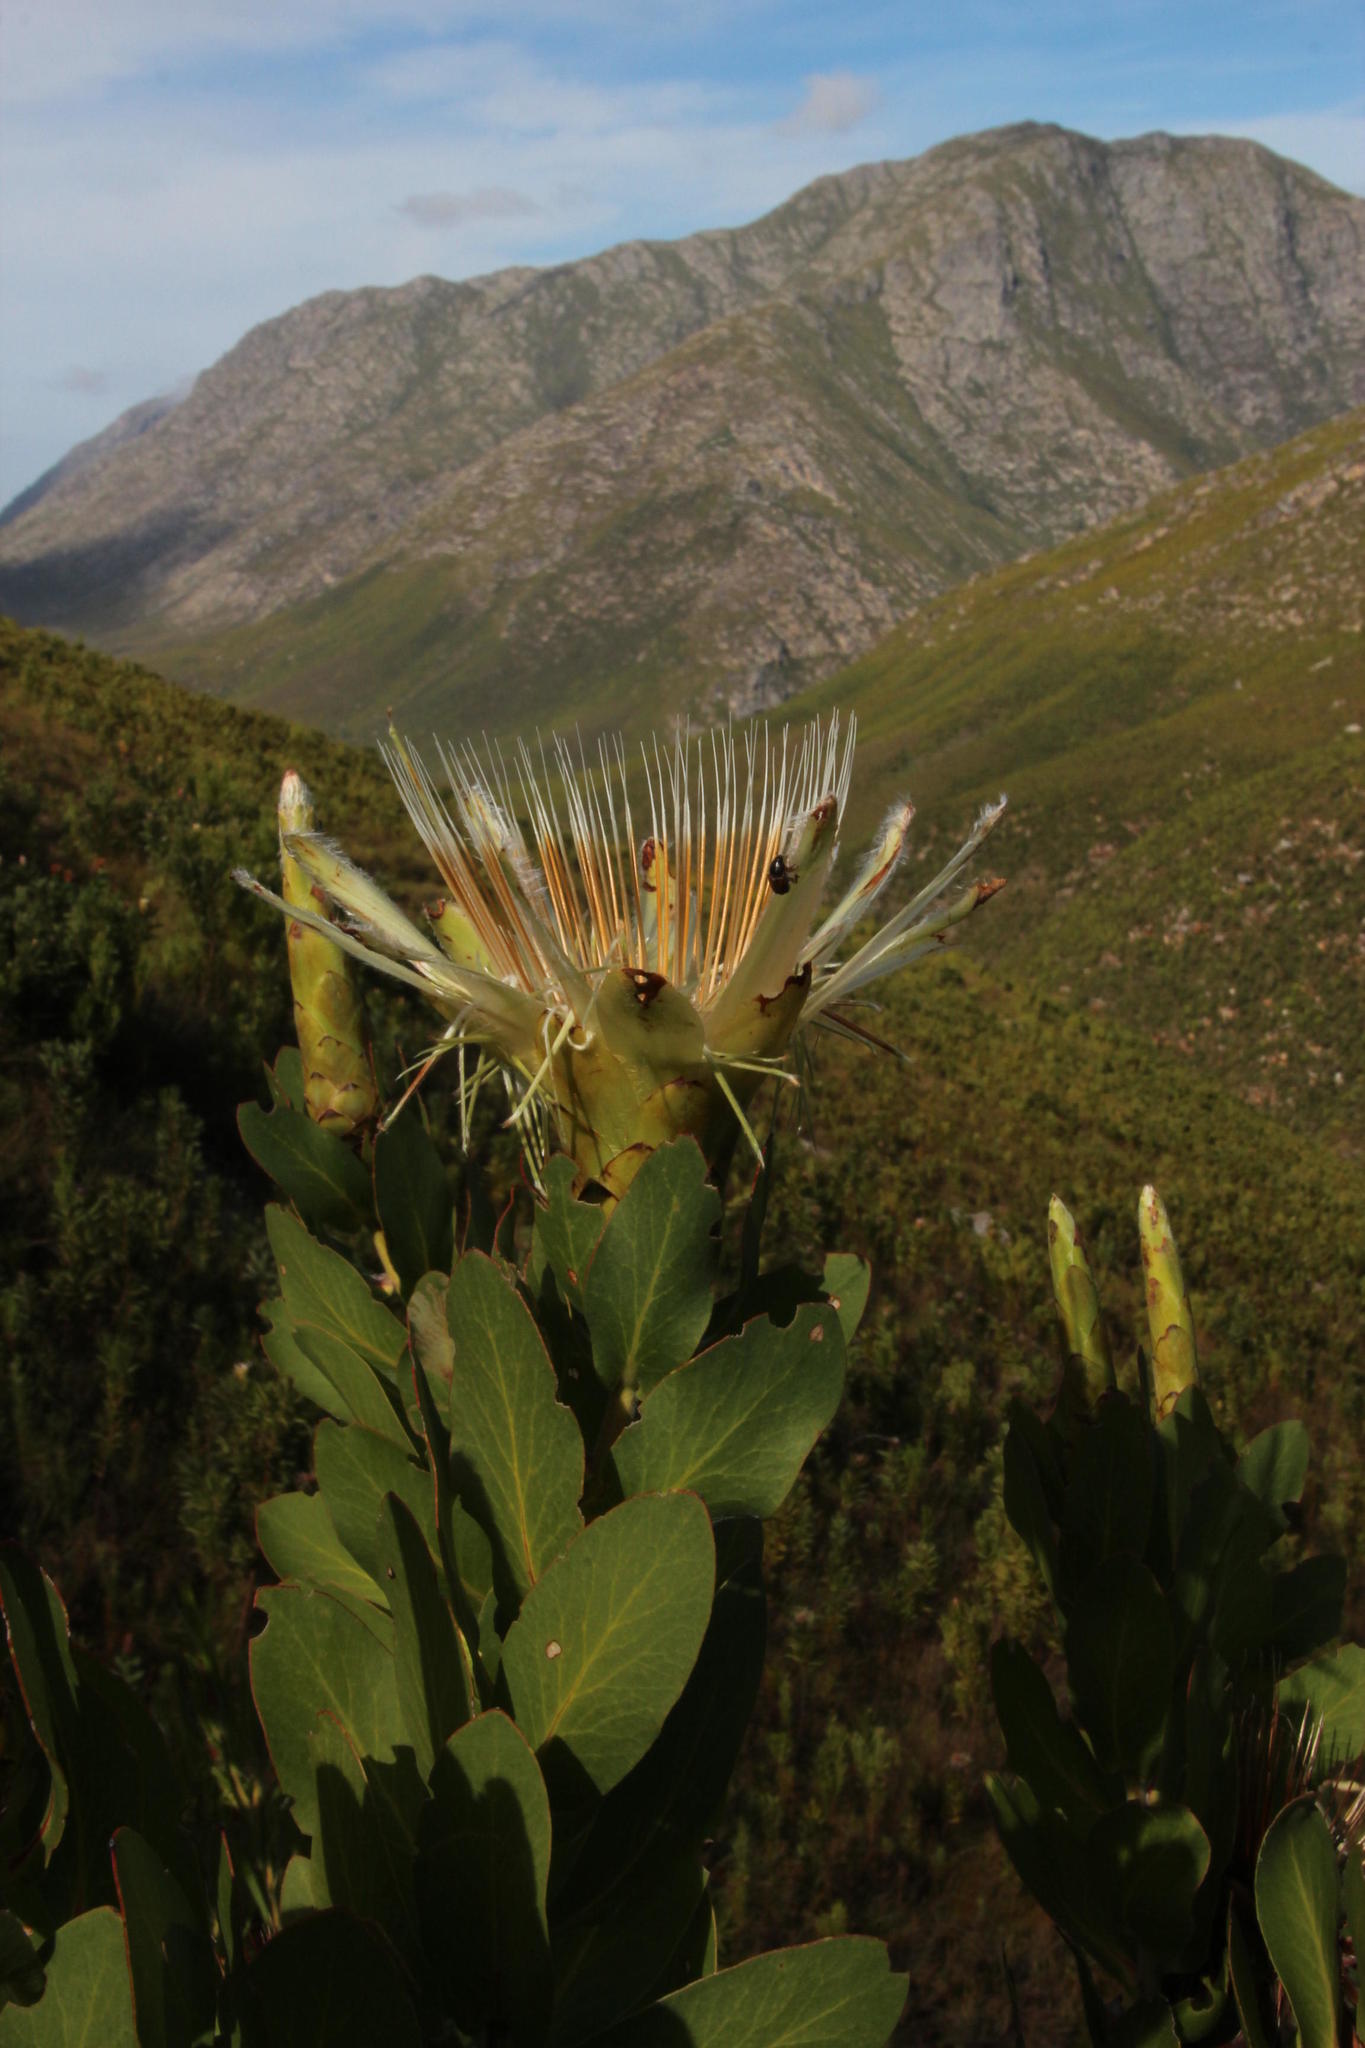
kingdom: Plantae
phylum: Tracheophyta
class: Magnoliopsida
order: Proteales
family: Proteaceae
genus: Protea
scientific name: Protea aurea
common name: Shuttlecock sugarbush
